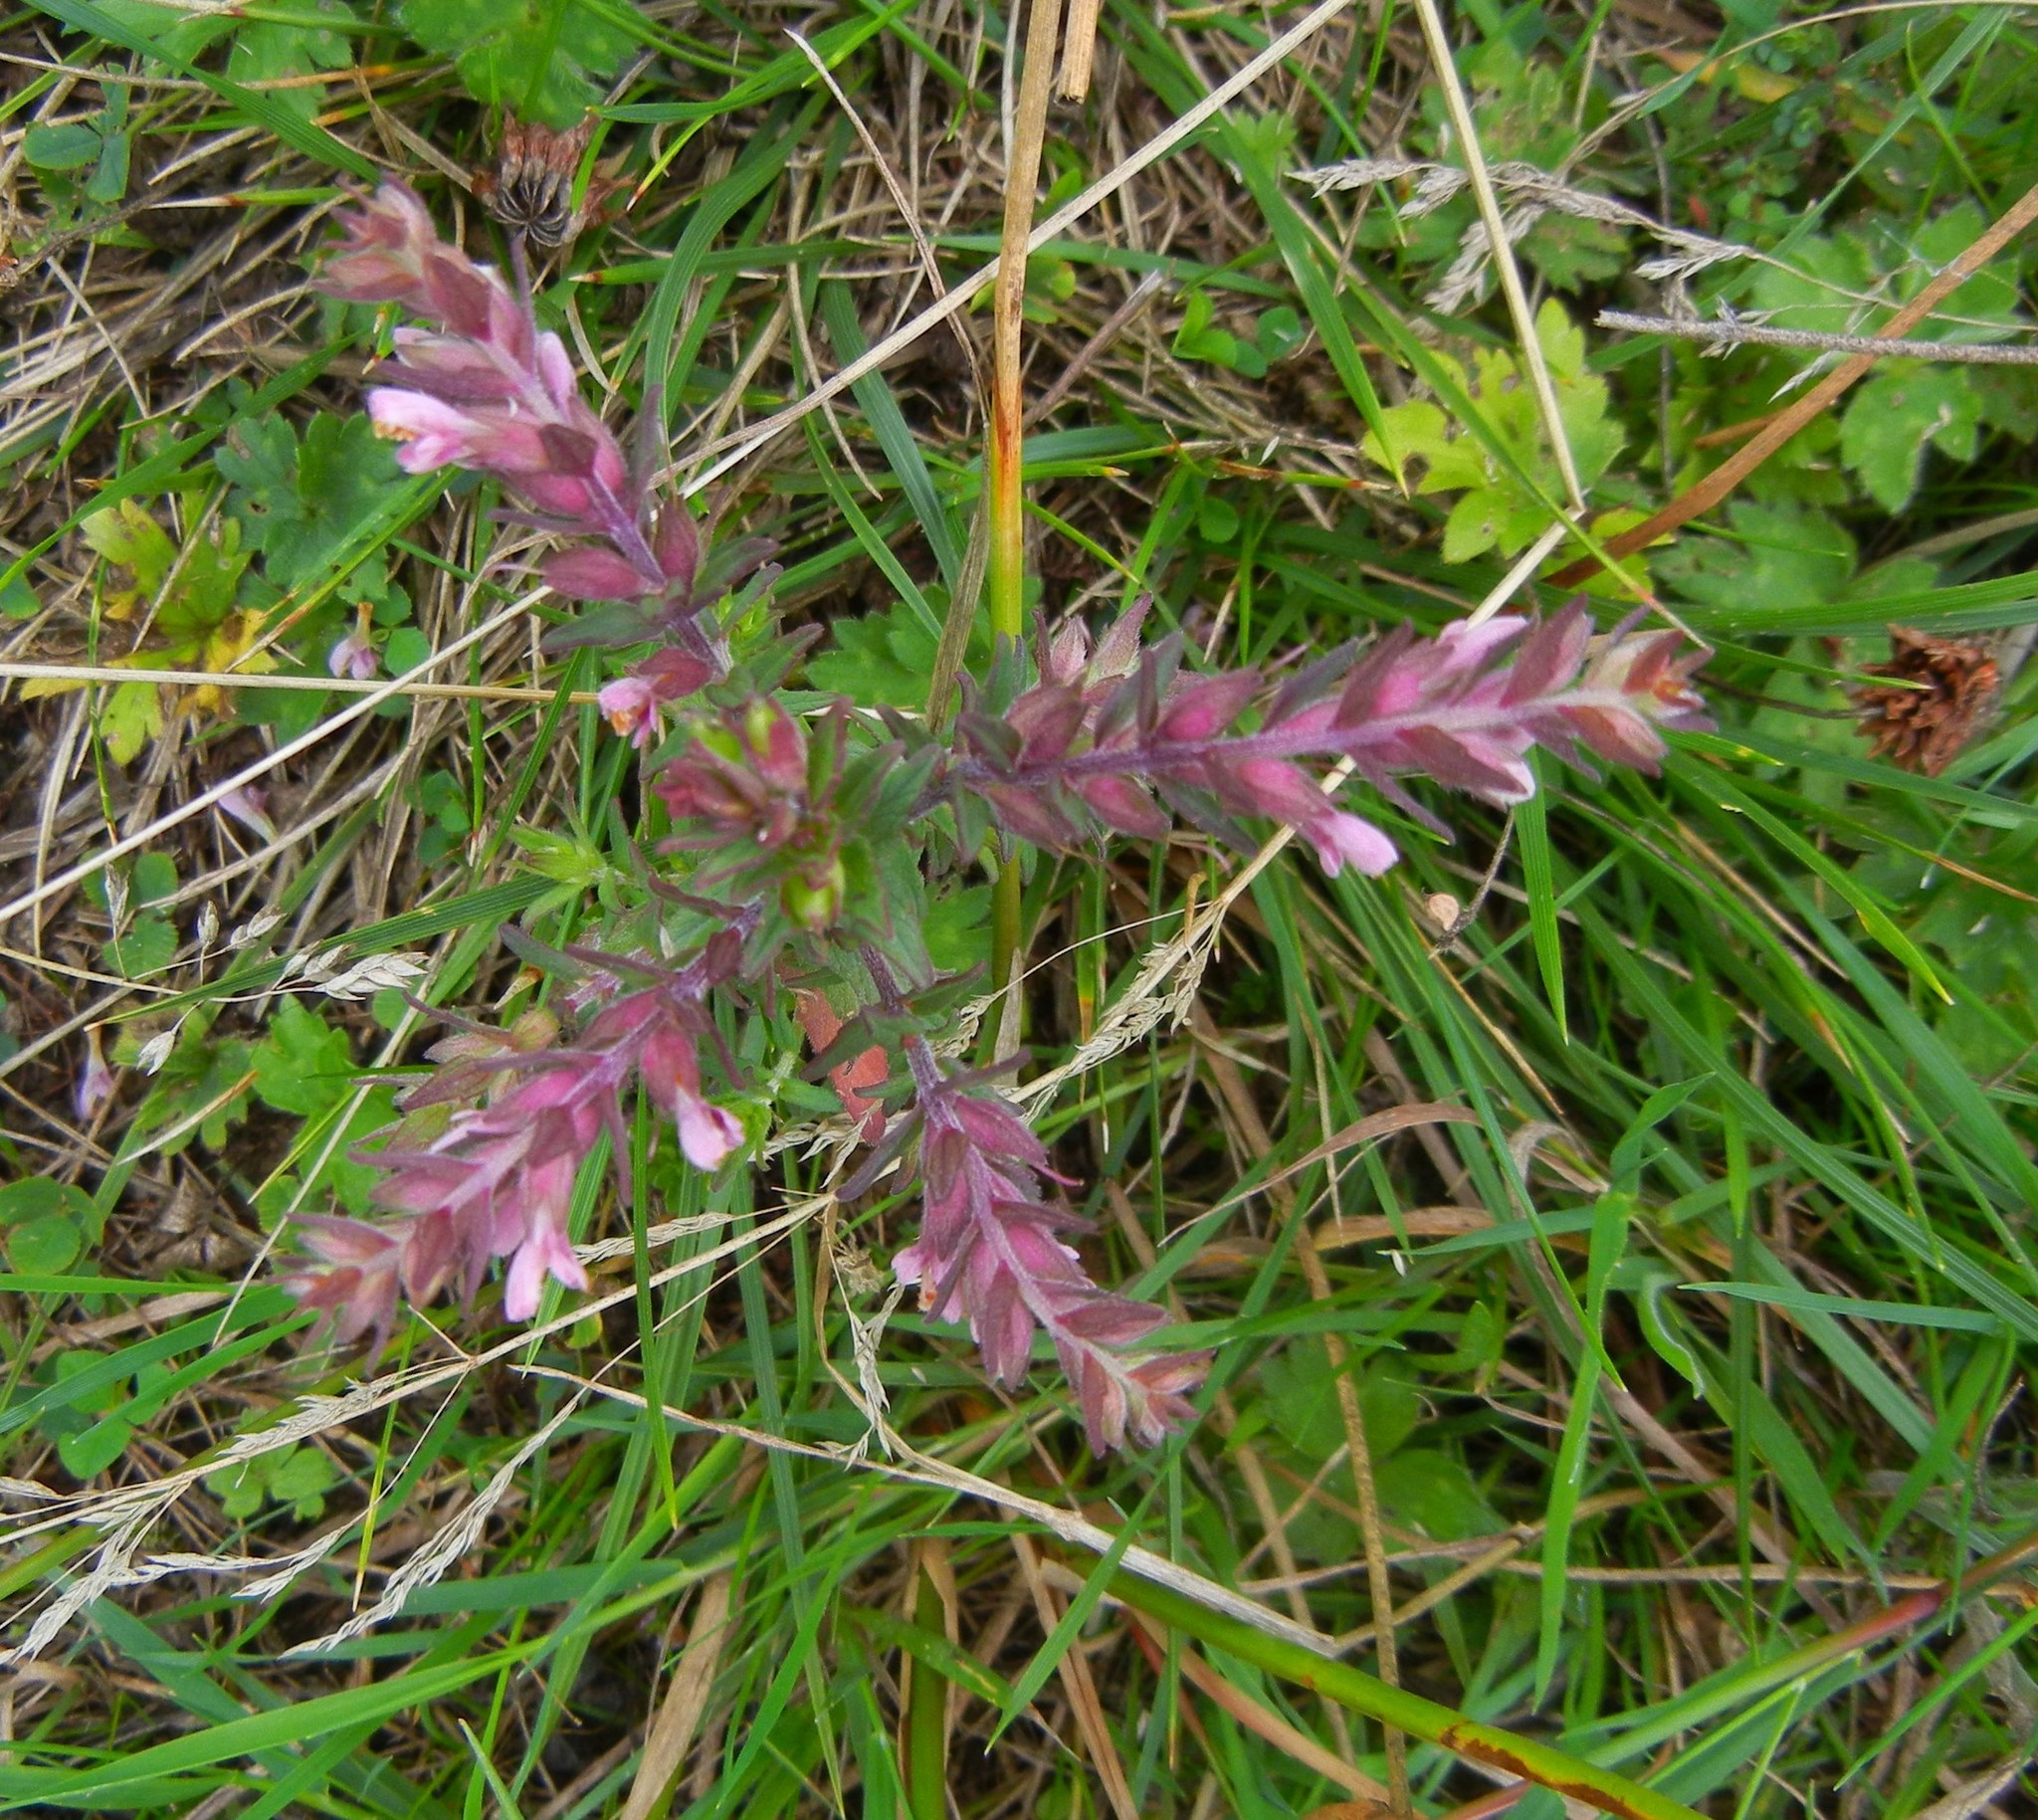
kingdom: Plantae
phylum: Tracheophyta
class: Magnoliopsida
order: Lamiales
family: Orobanchaceae
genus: Odontites
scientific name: Odontites vernus
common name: Red bartsia
